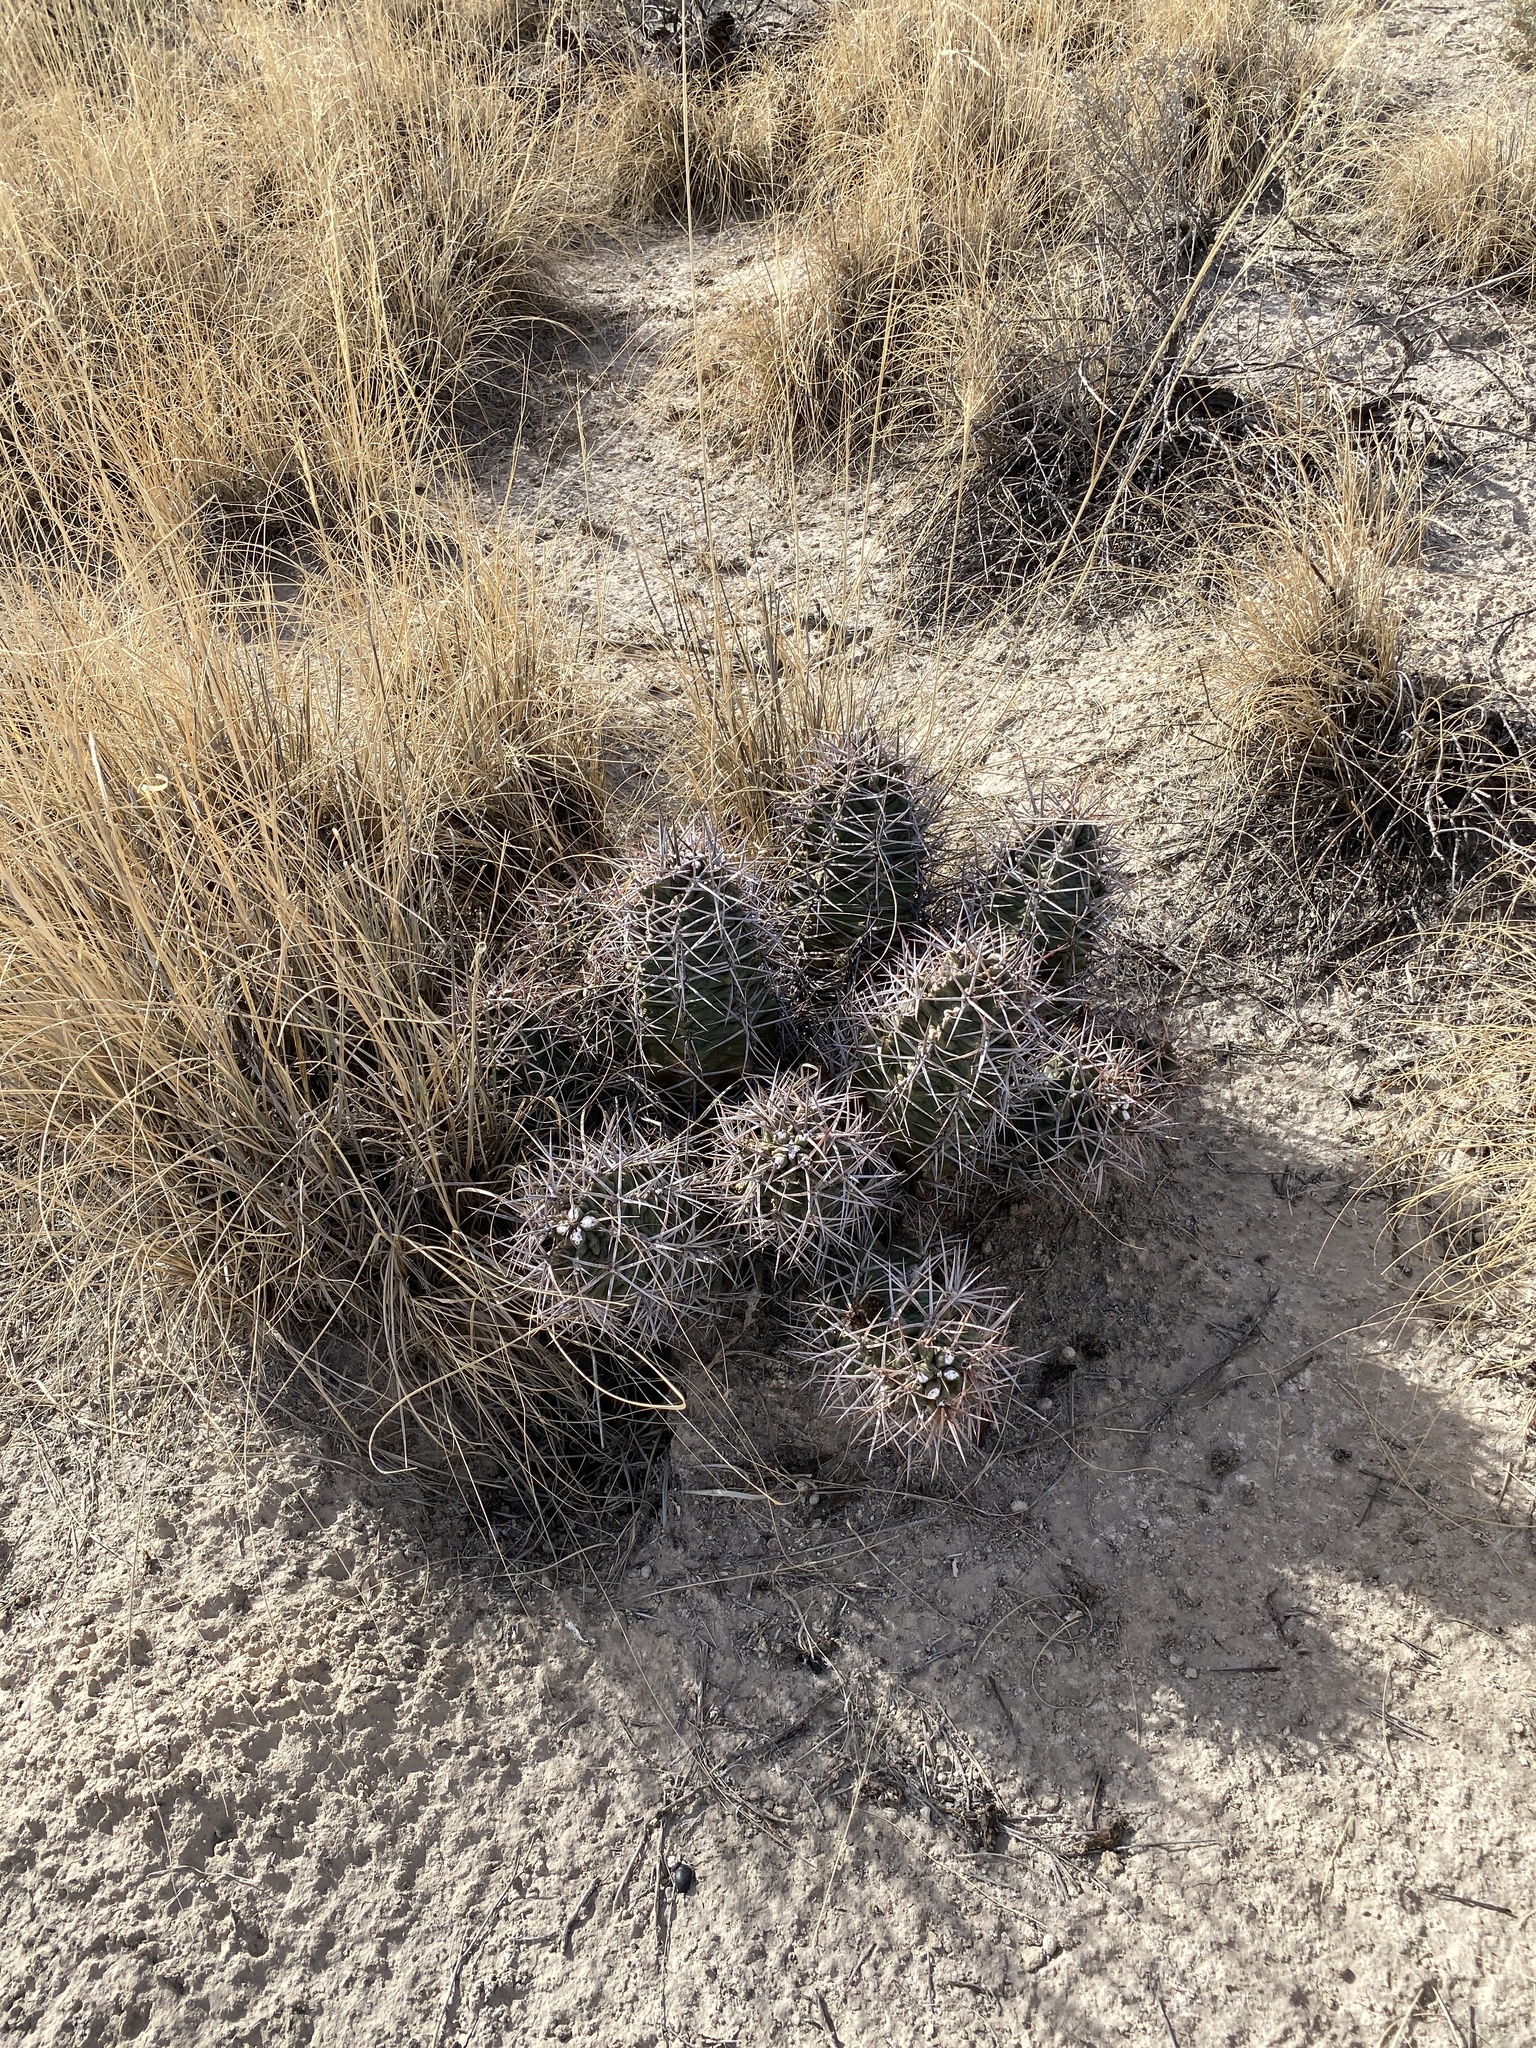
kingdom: Plantae
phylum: Tracheophyta
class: Magnoliopsida
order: Caryophyllales
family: Cactaceae
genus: Echinocereus
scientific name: Echinocereus triglochidiatus
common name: Claretcup hedgehog
